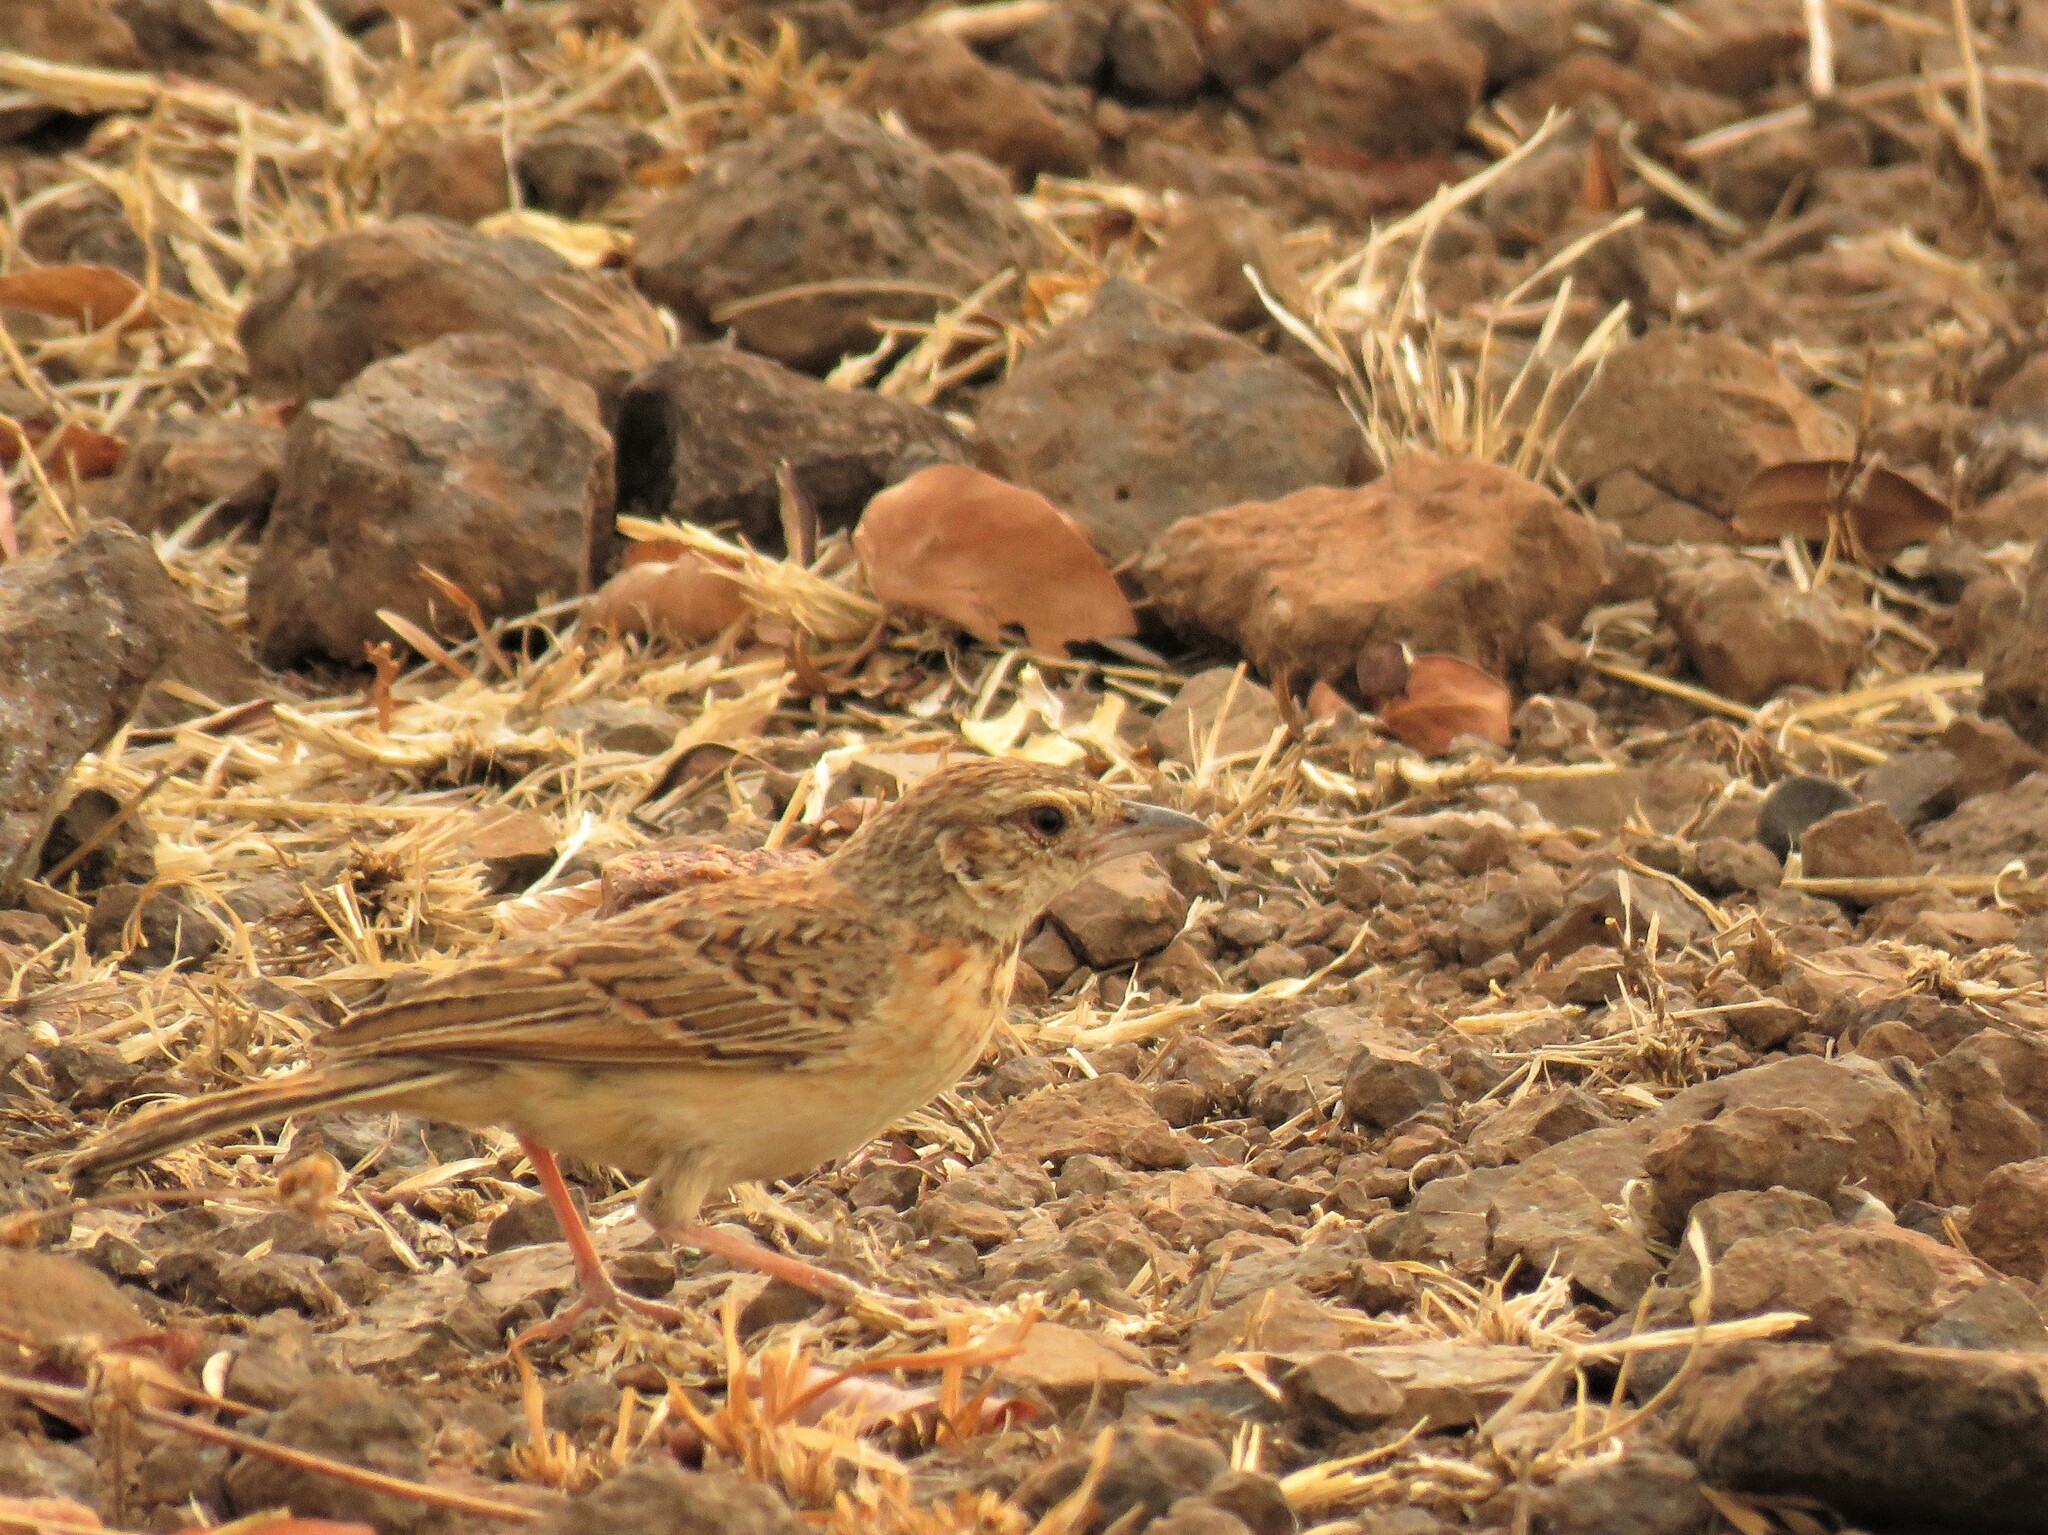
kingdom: Animalia
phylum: Chordata
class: Aves
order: Passeriformes
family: Alaudidae
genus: Mirafra
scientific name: Mirafra rufocinnamomea
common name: Flappet lark
